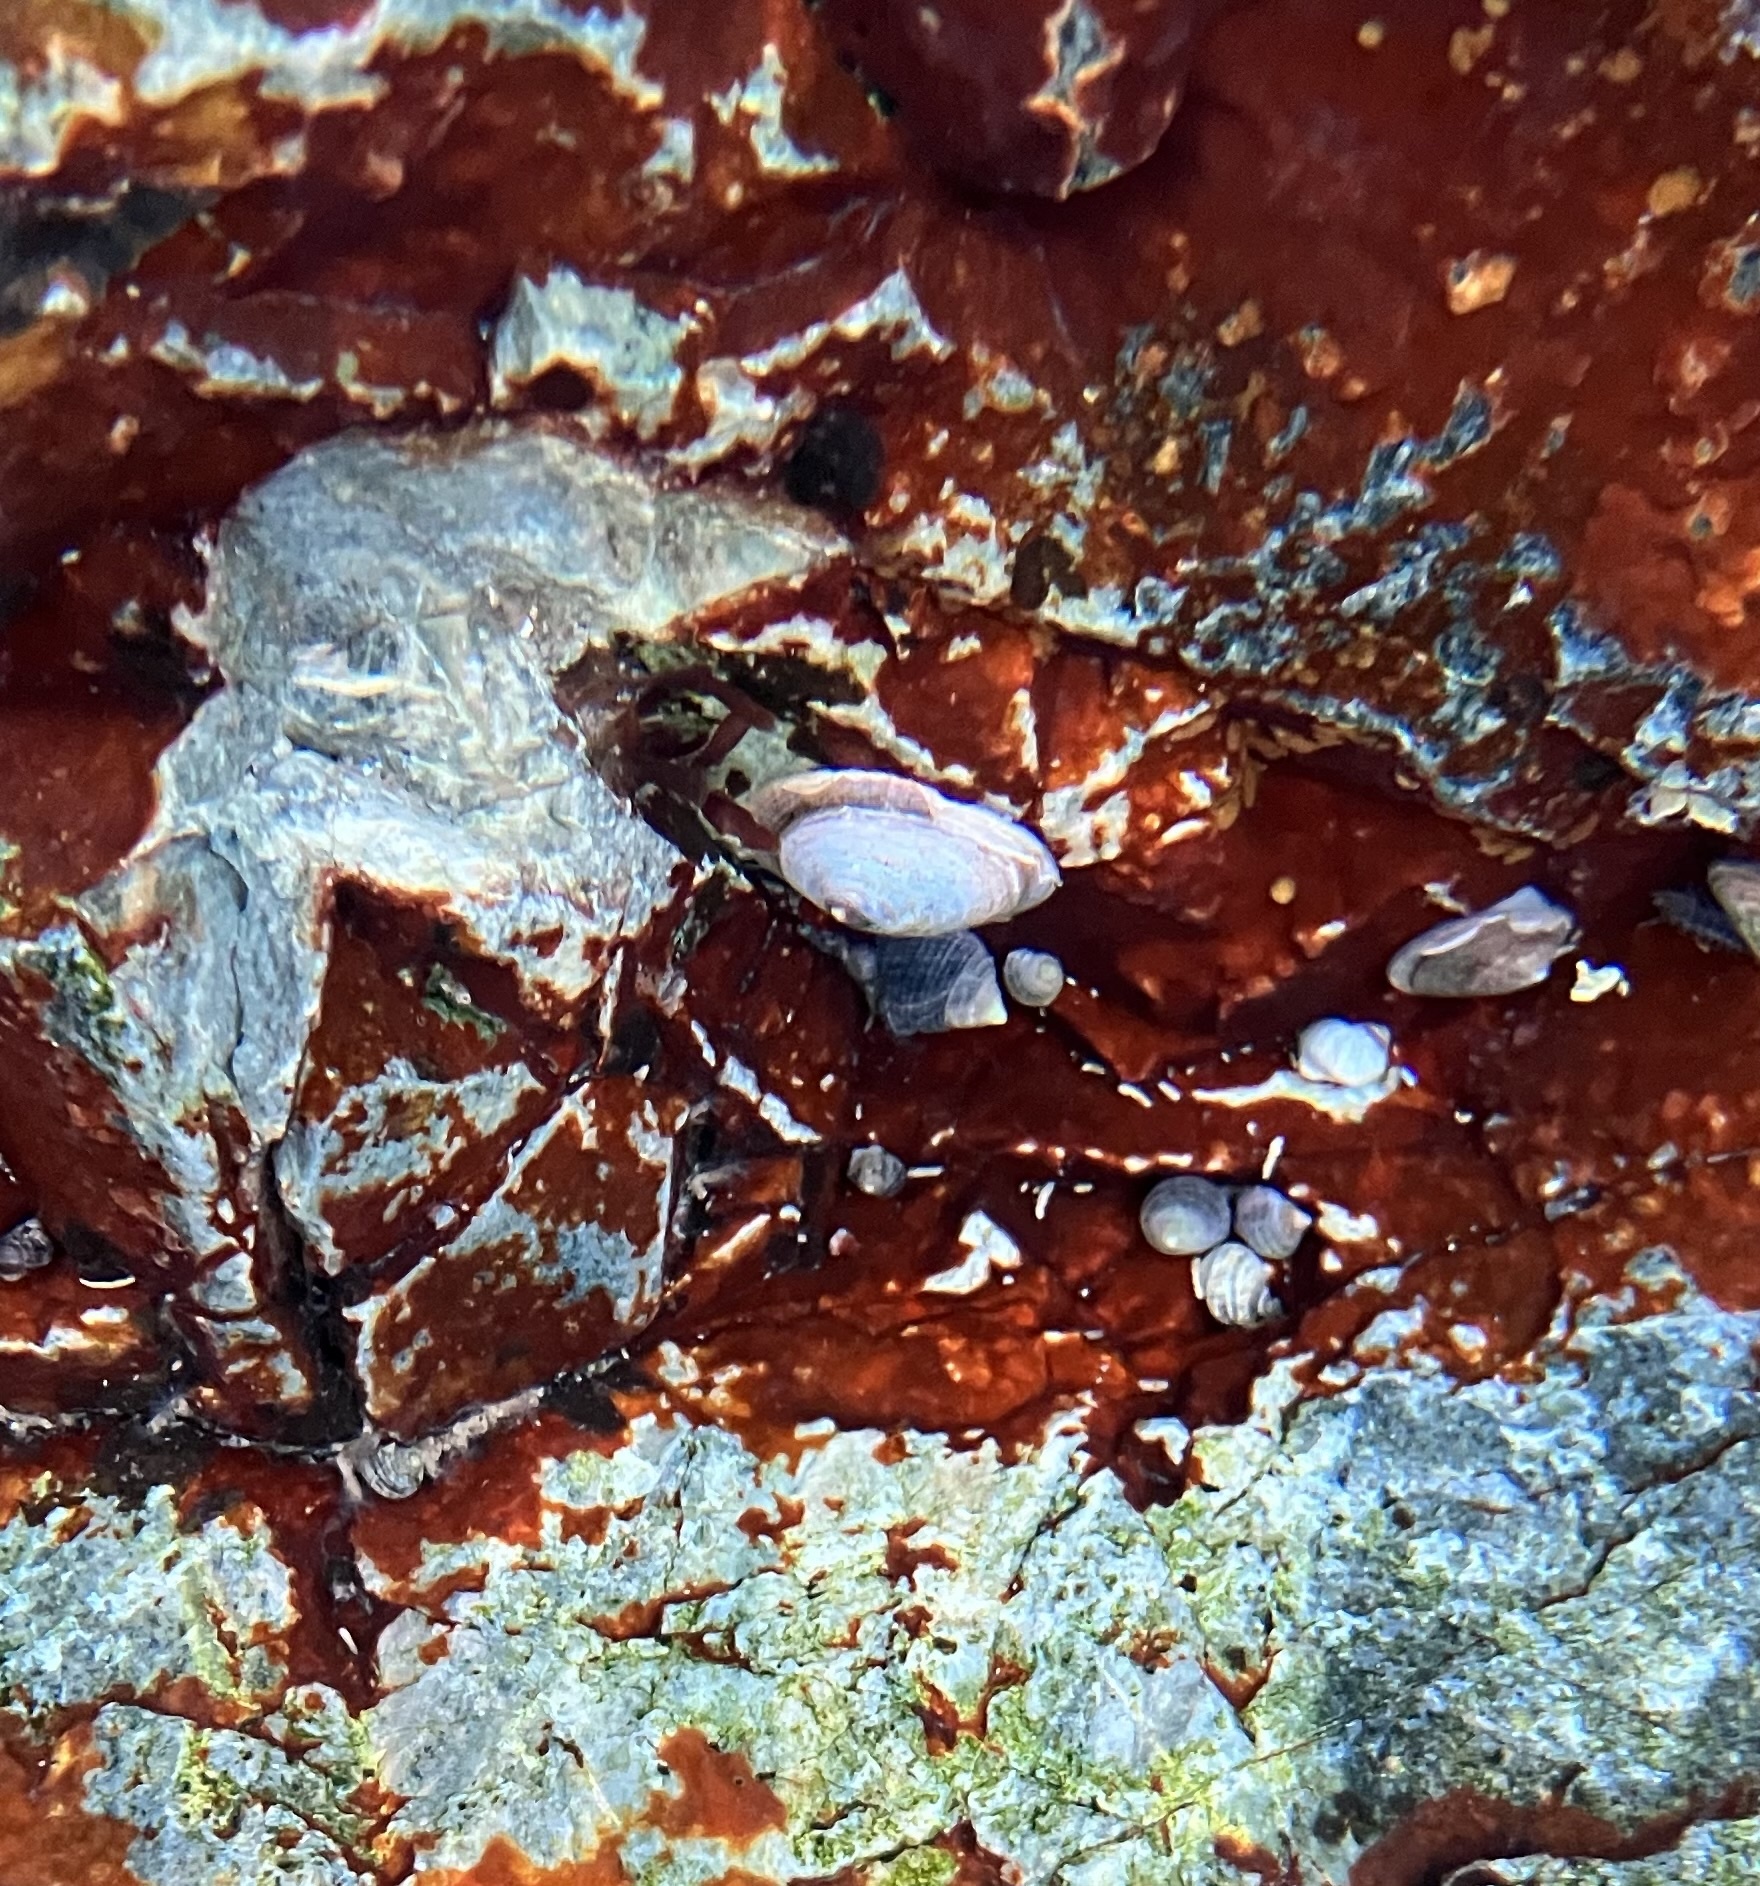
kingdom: Animalia
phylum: Mollusca
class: Gastropoda
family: Lottiidae
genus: Testudinalia
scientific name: Testudinalia testudinalis
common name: Common tortoiseshell limpet
